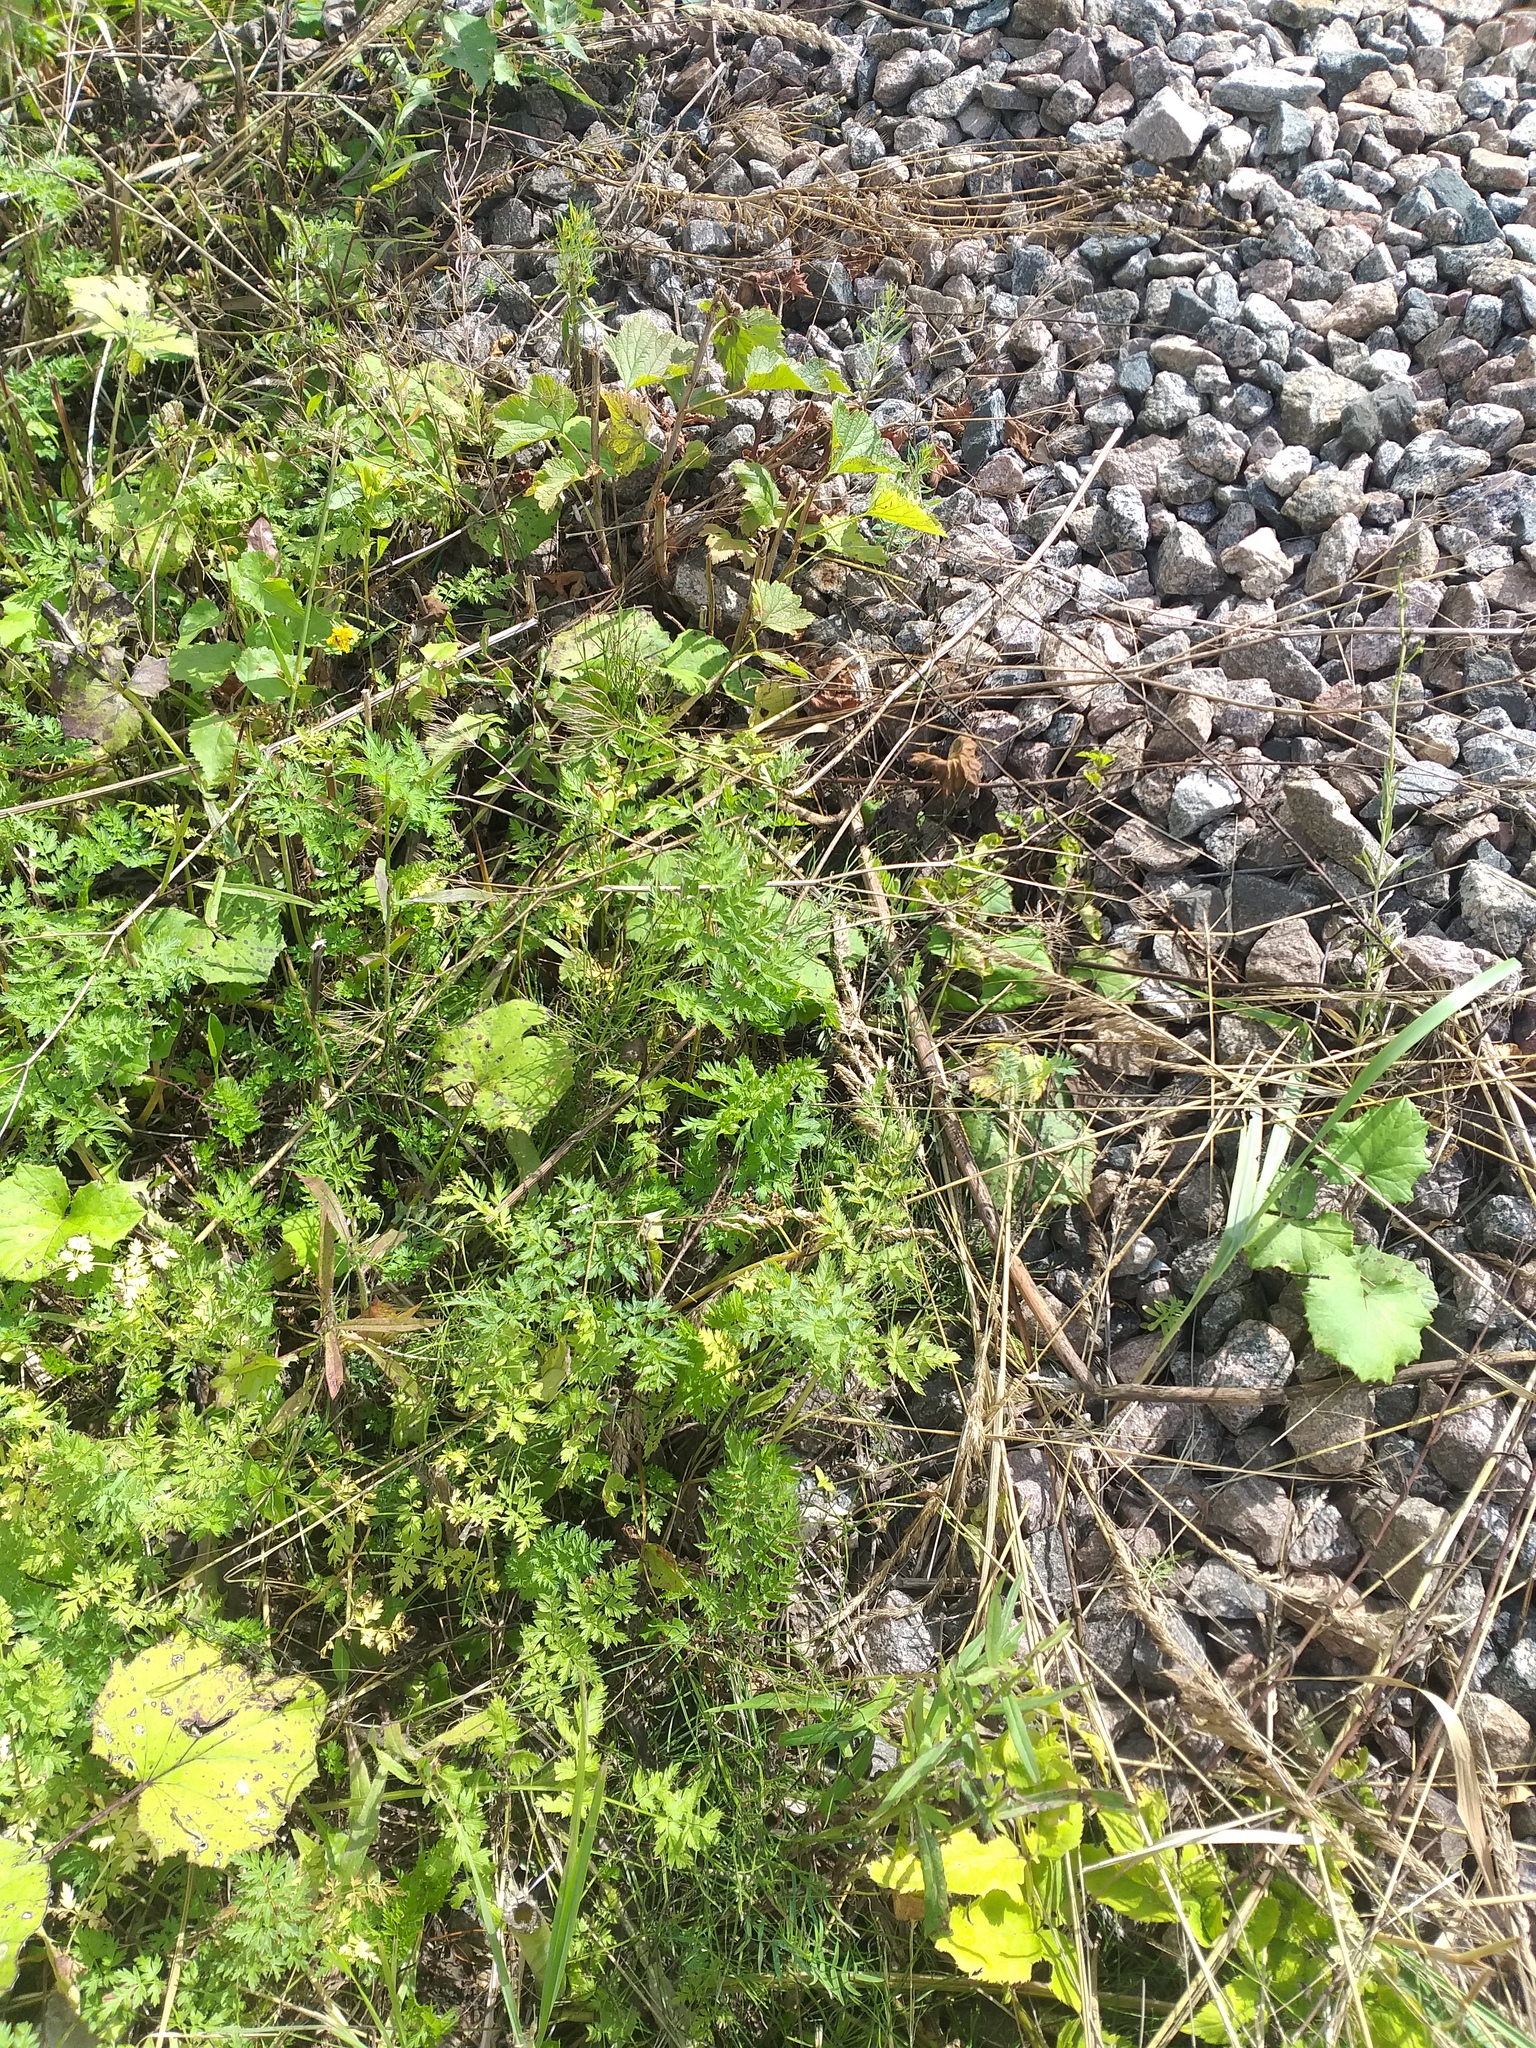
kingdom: Plantae
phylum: Tracheophyta
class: Magnoliopsida
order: Apiales
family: Apiaceae
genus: Anthriscus
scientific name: Anthriscus sylvestris
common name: Cow parsley
